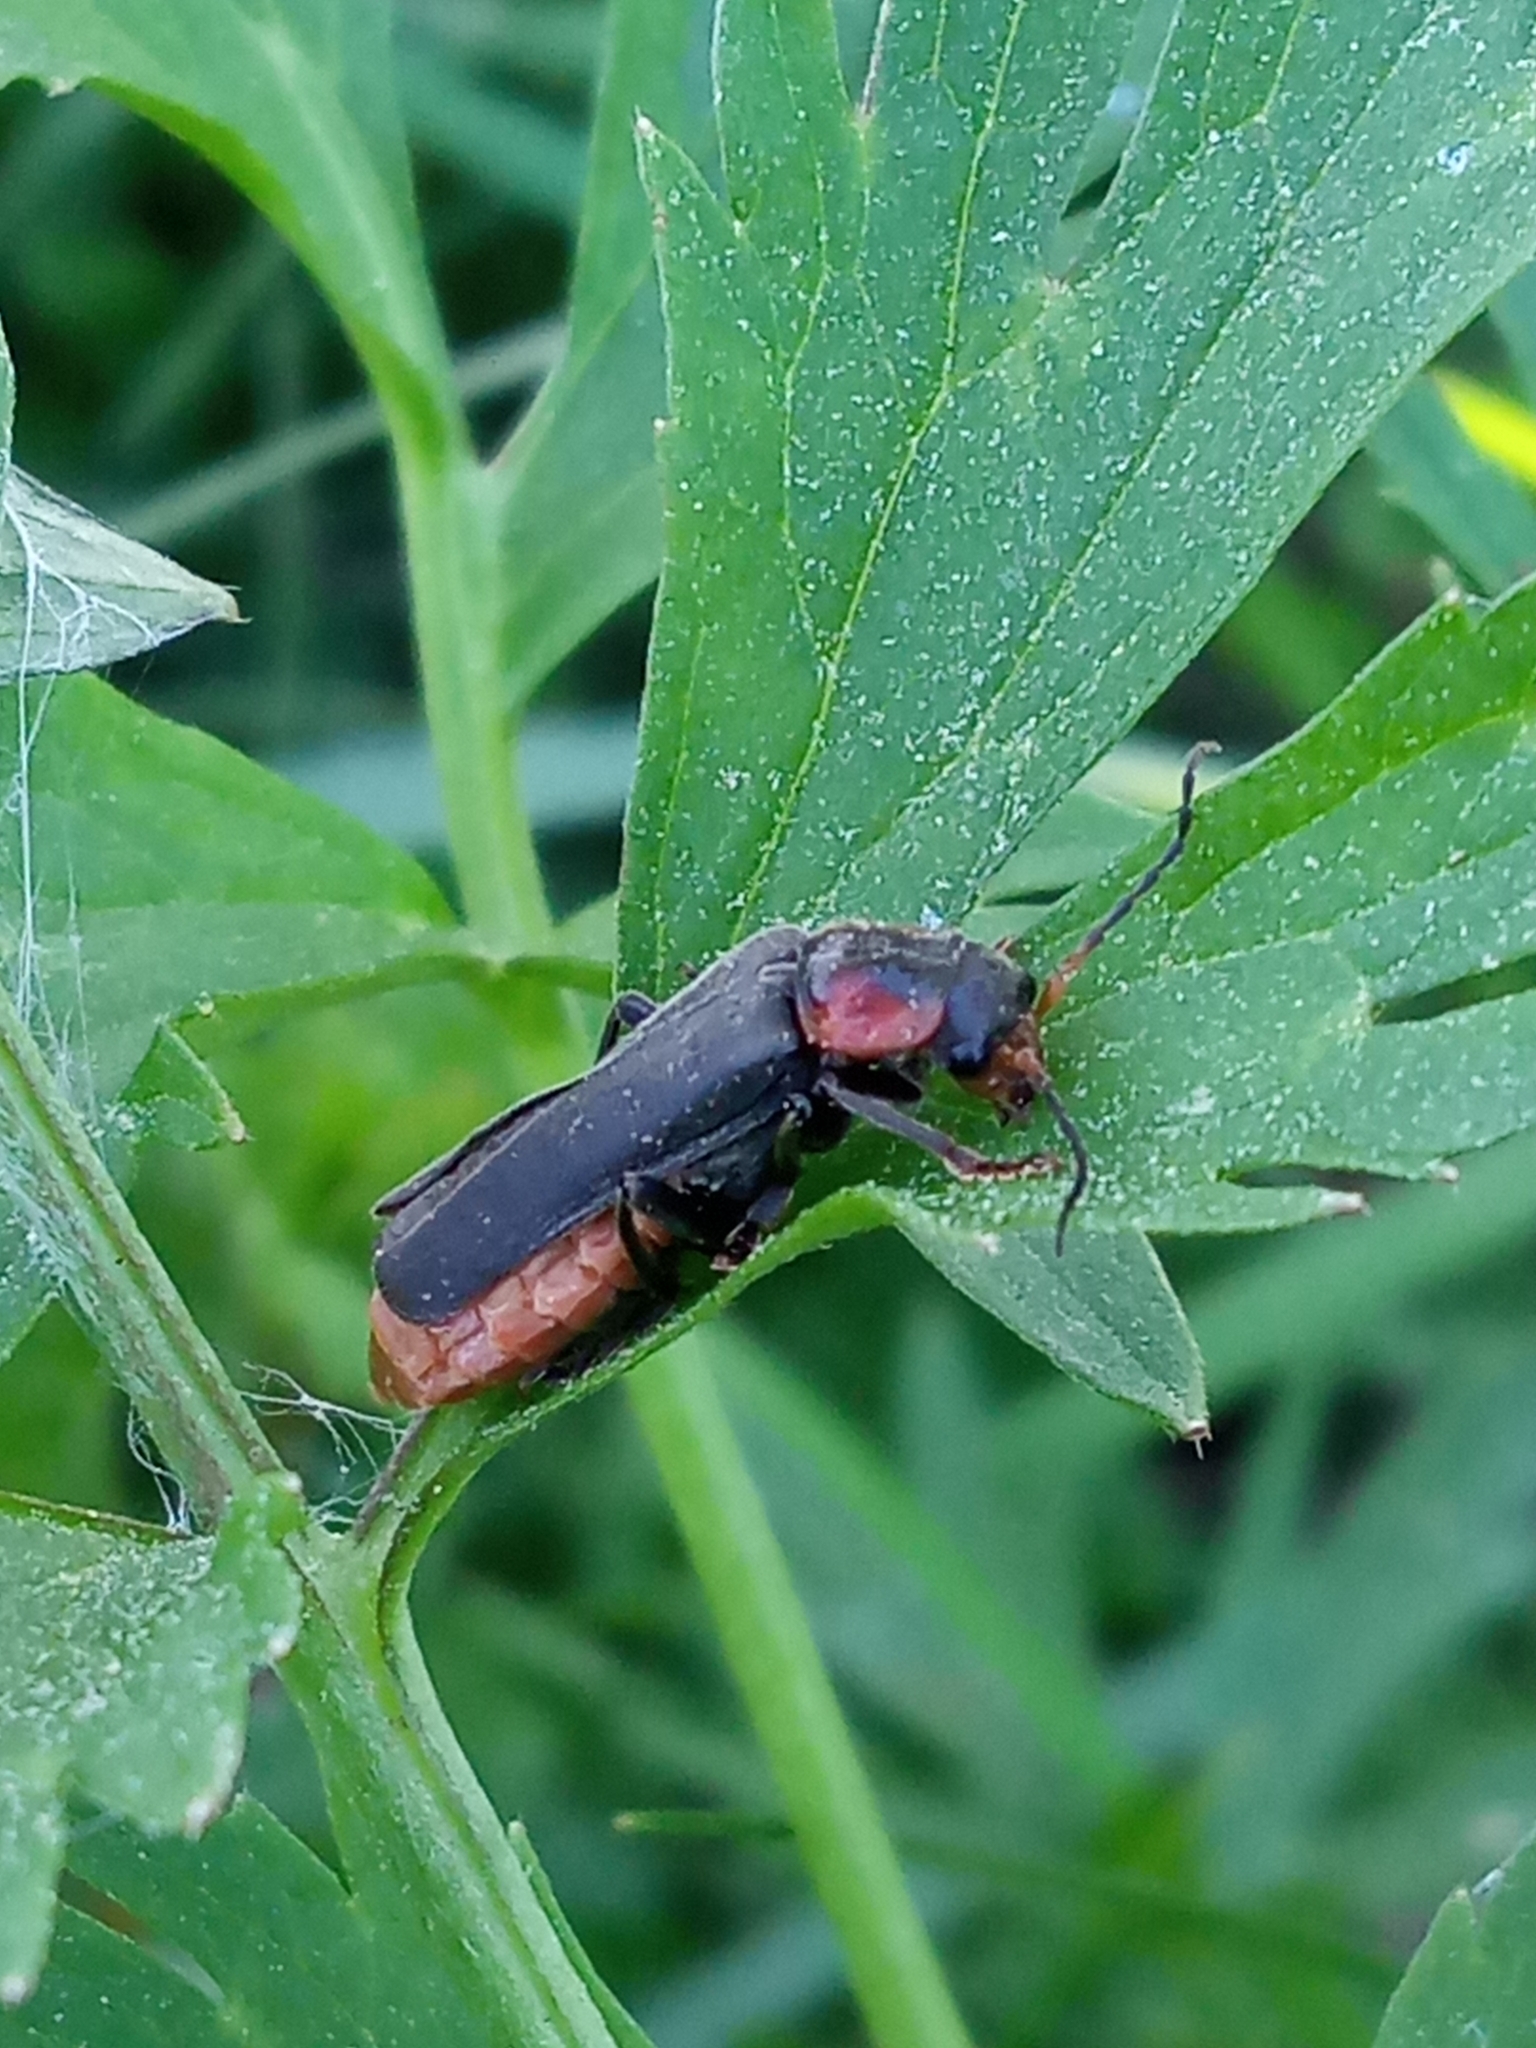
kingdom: Animalia
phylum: Arthropoda
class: Insecta
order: Coleoptera
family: Cantharidae
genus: Cantharis
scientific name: Cantharis fusca
